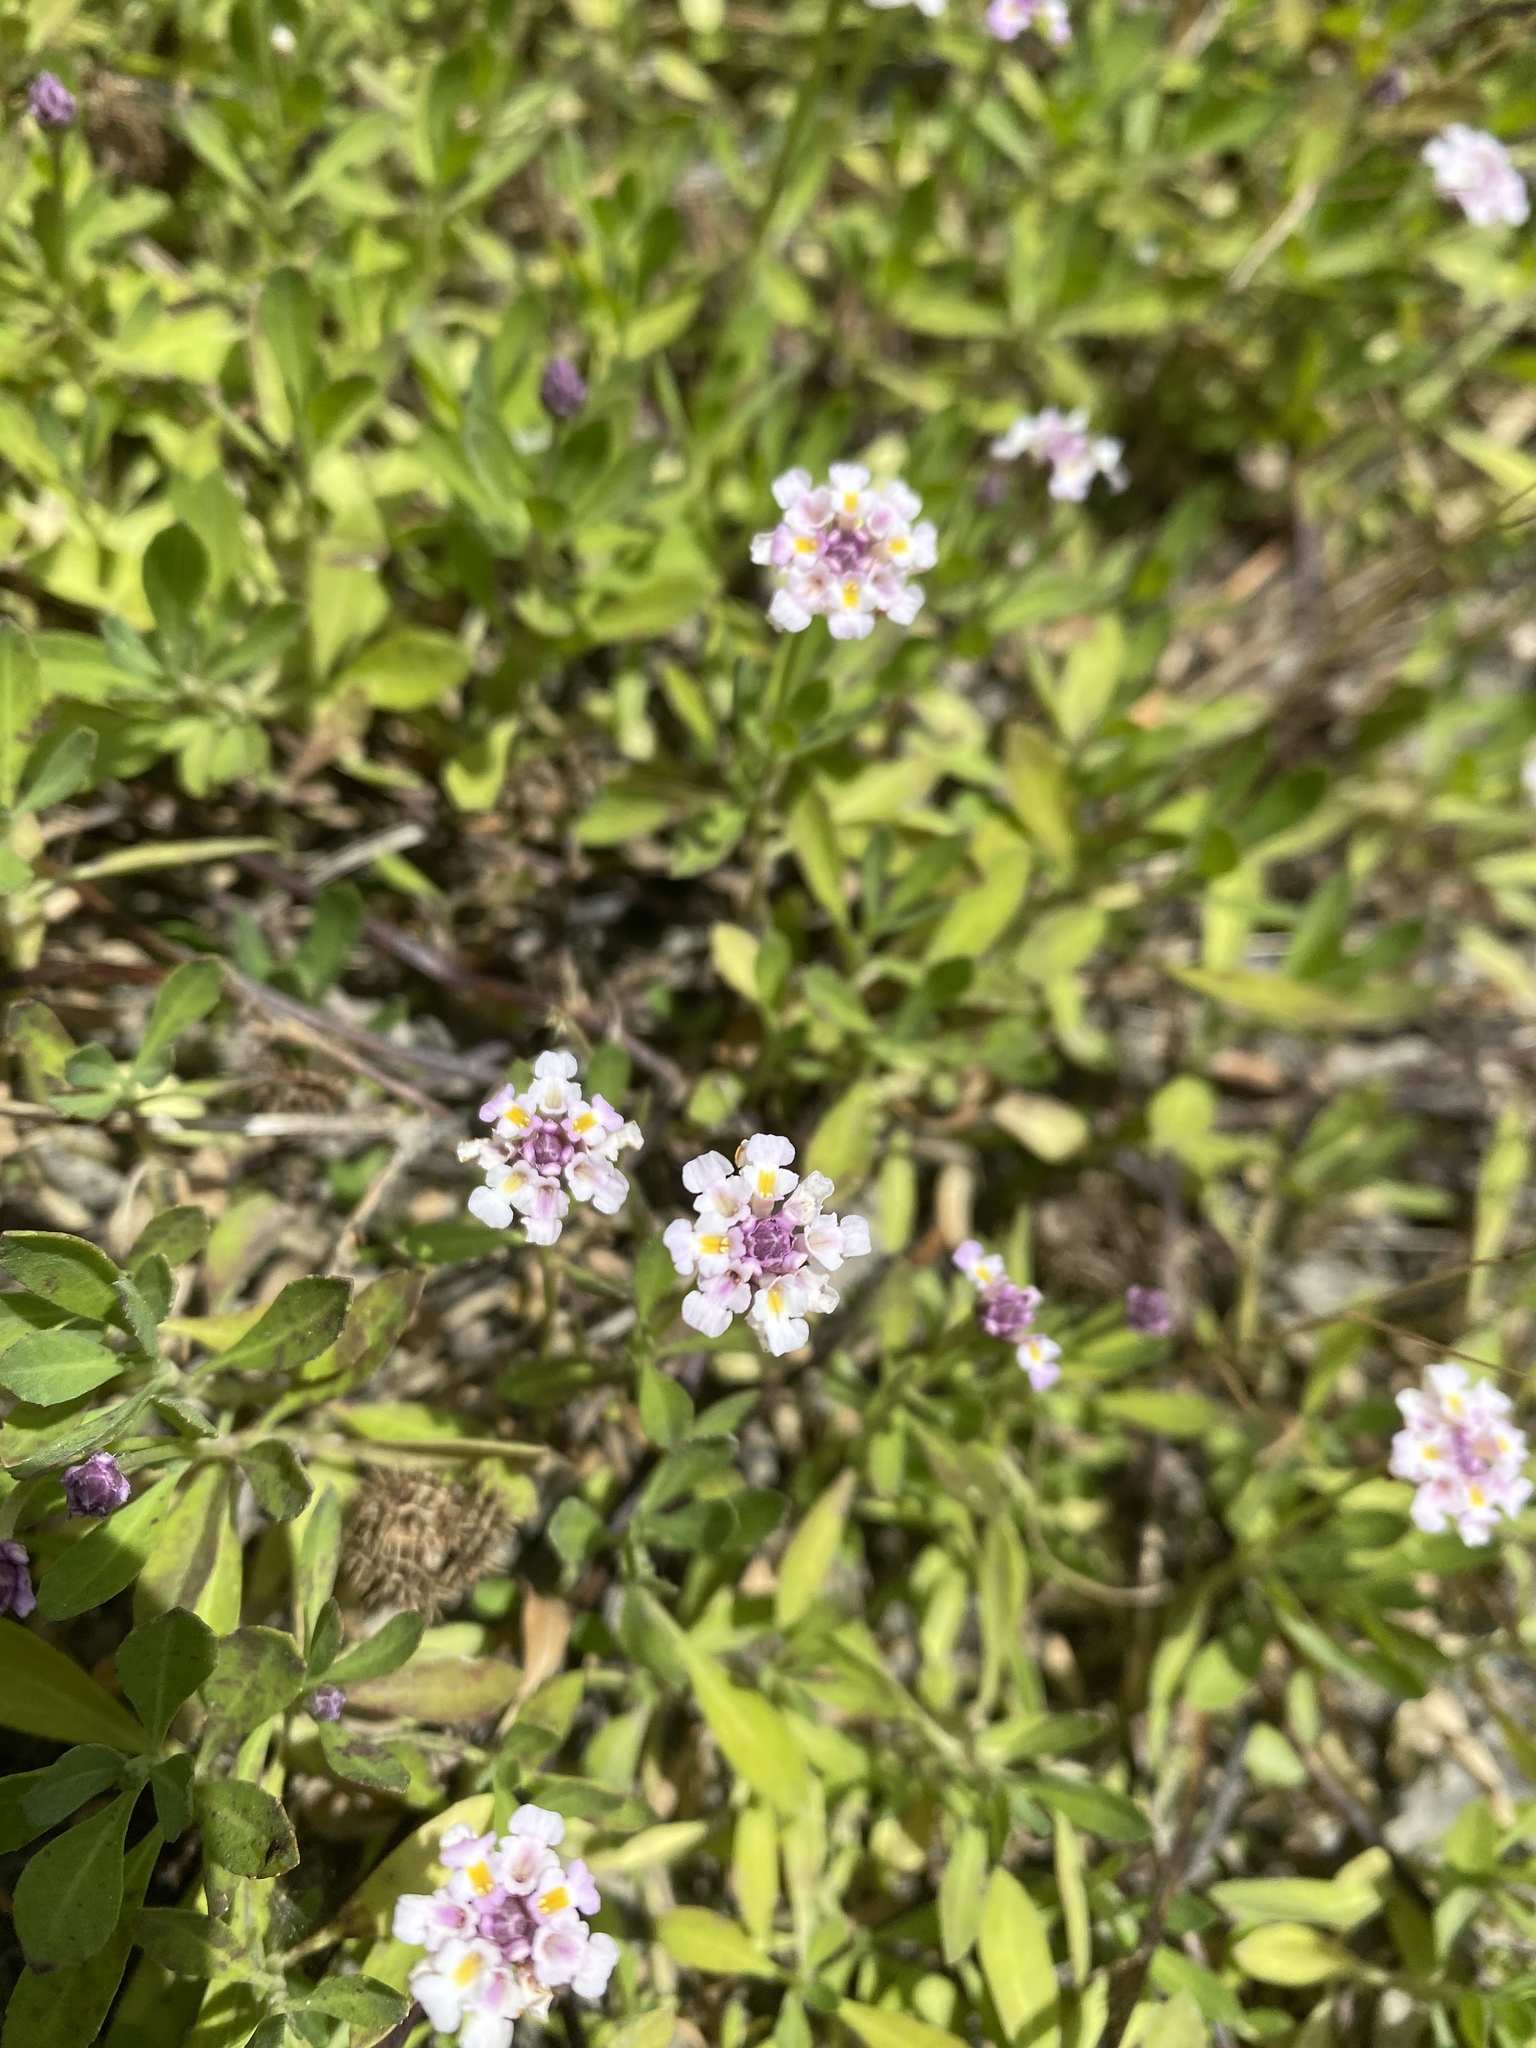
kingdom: Plantae
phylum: Tracheophyta
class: Magnoliopsida
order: Lamiales
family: Verbenaceae
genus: Phyla
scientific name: Phyla nodiflora
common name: Frogfruit
